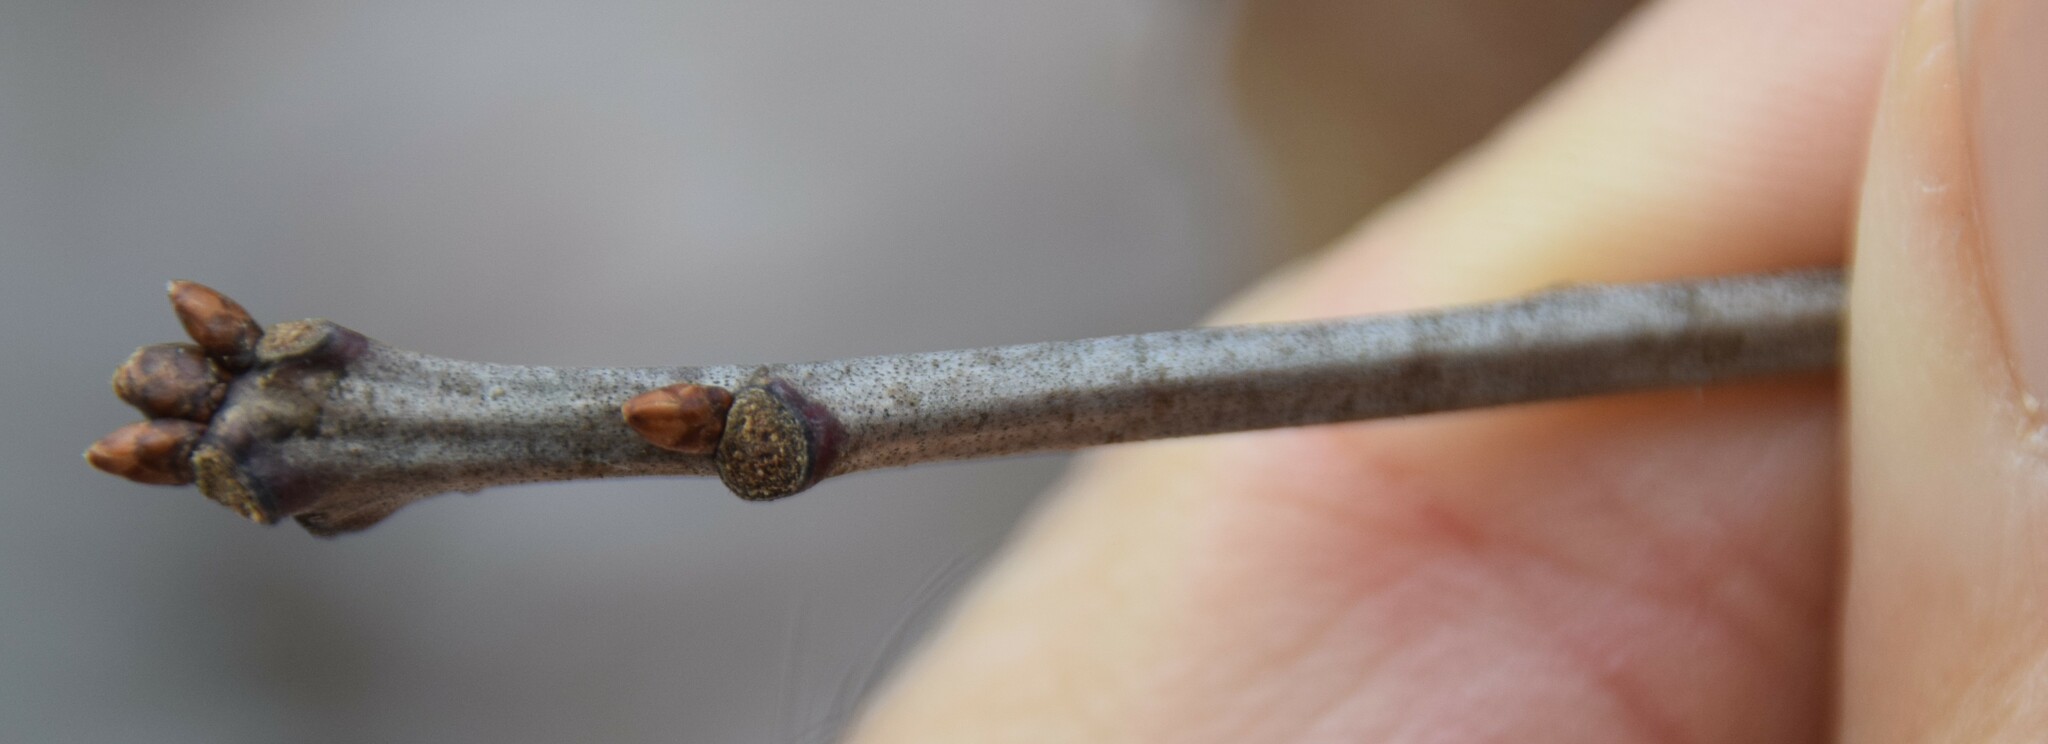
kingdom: Plantae
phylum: Tracheophyta
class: Magnoliopsida
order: Fagales
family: Fagaceae
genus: Quercus
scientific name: Quercus rubra
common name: Red oak
